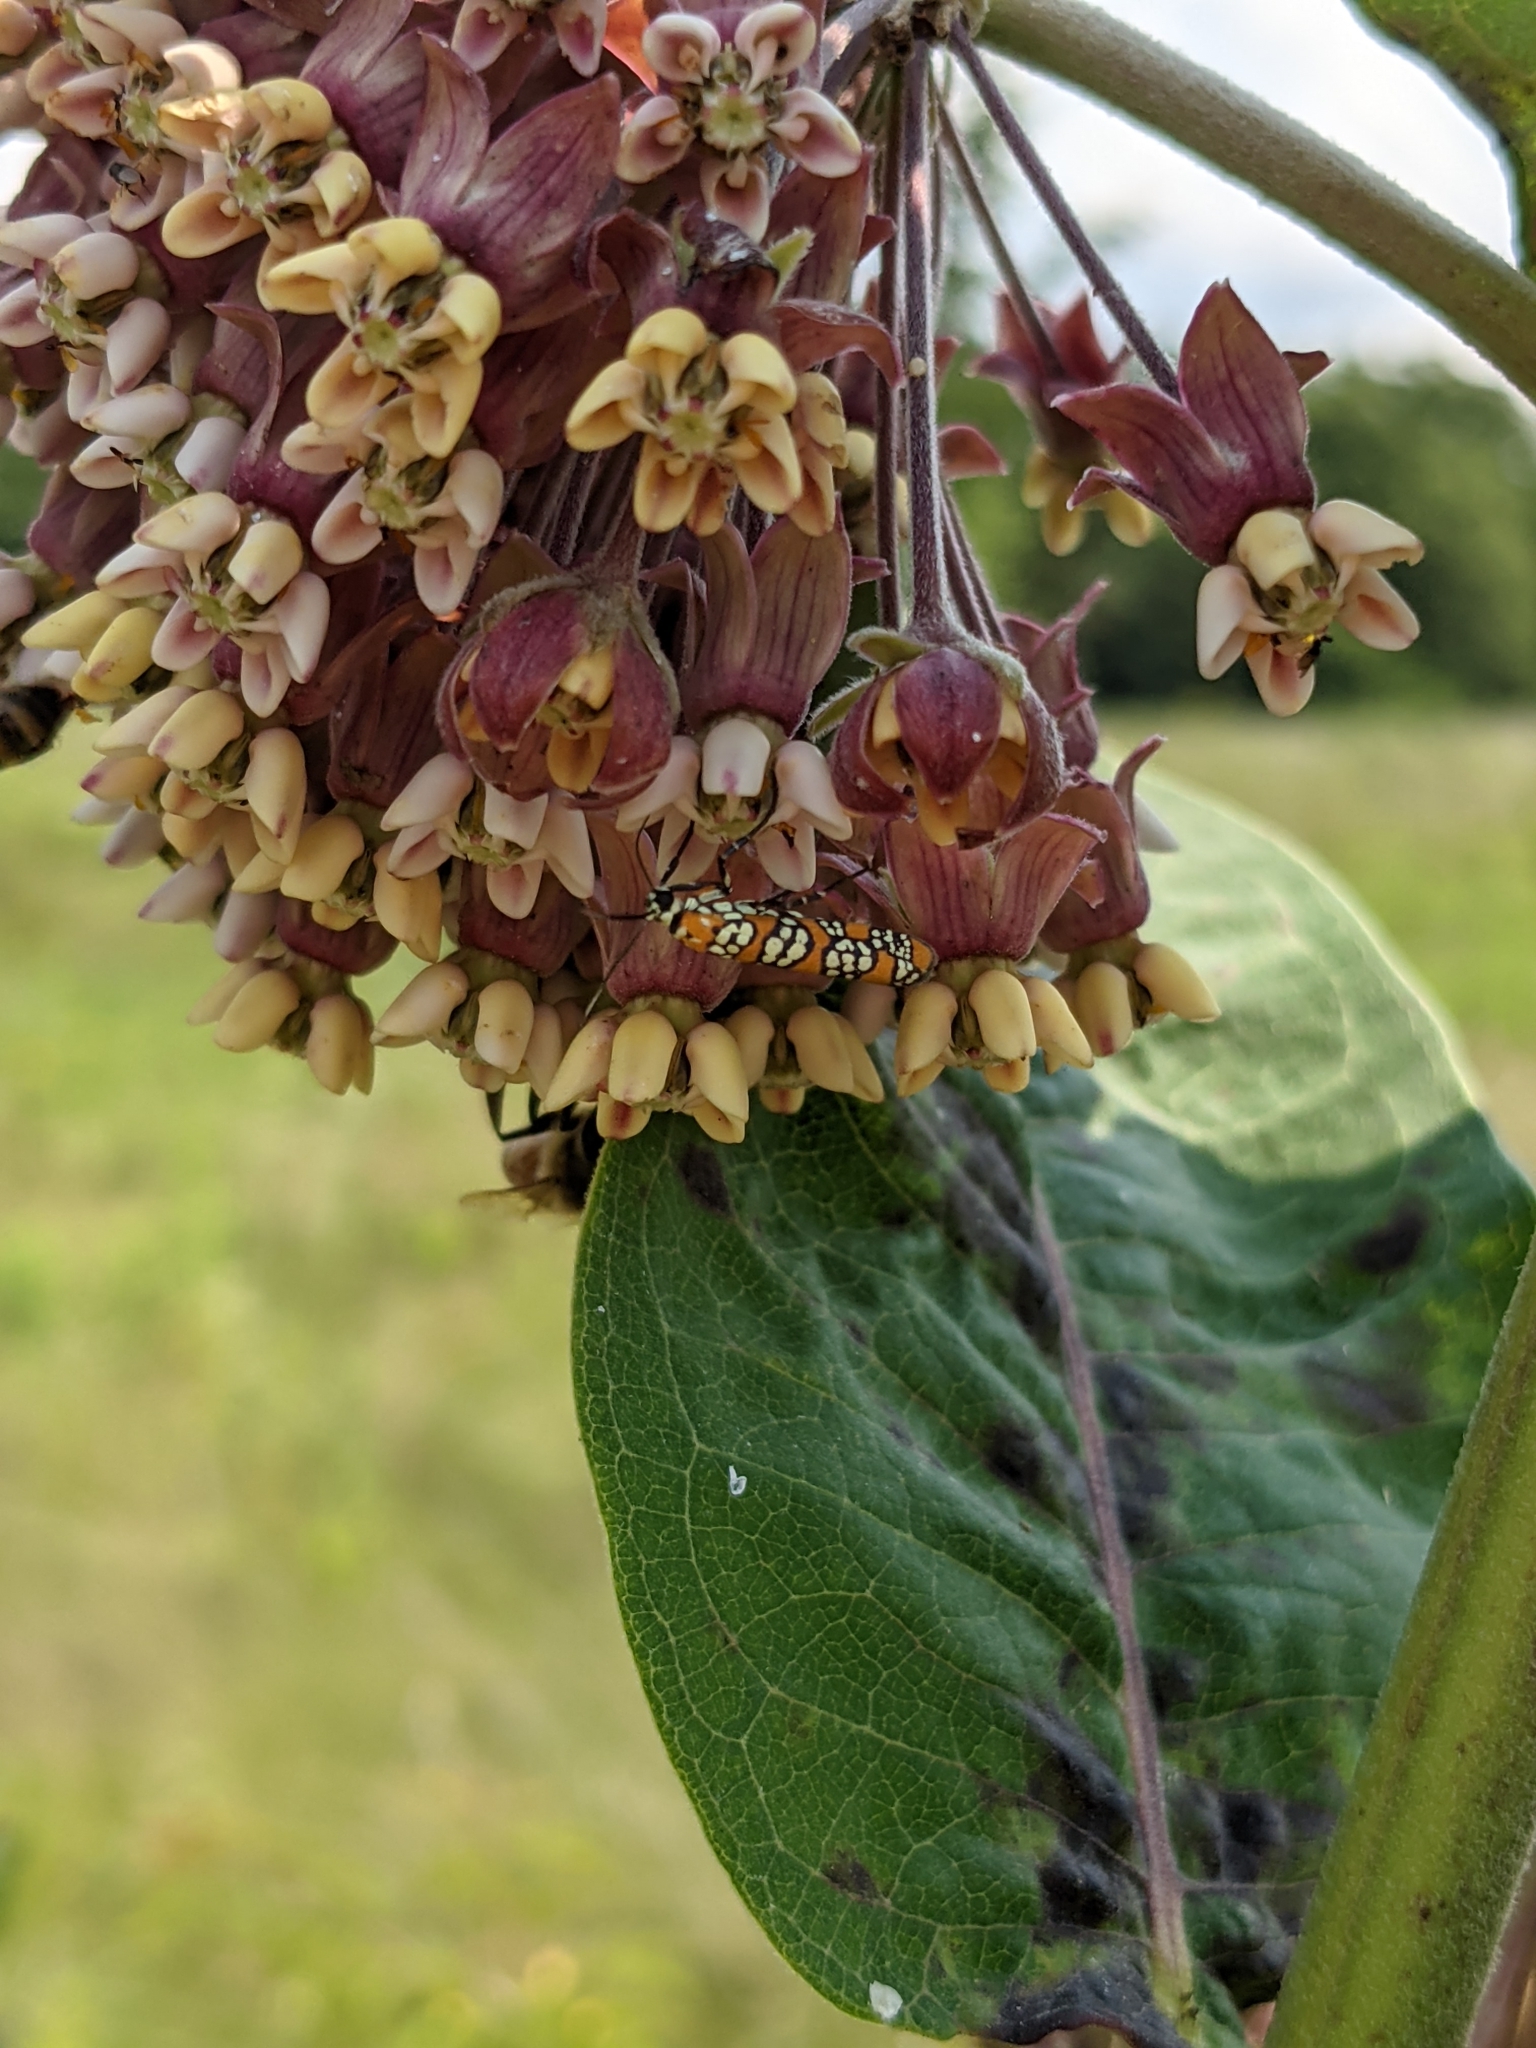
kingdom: Animalia
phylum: Arthropoda
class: Insecta
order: Lepidoptera
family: Attevidae
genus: Atteva
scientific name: Atteva punctella
